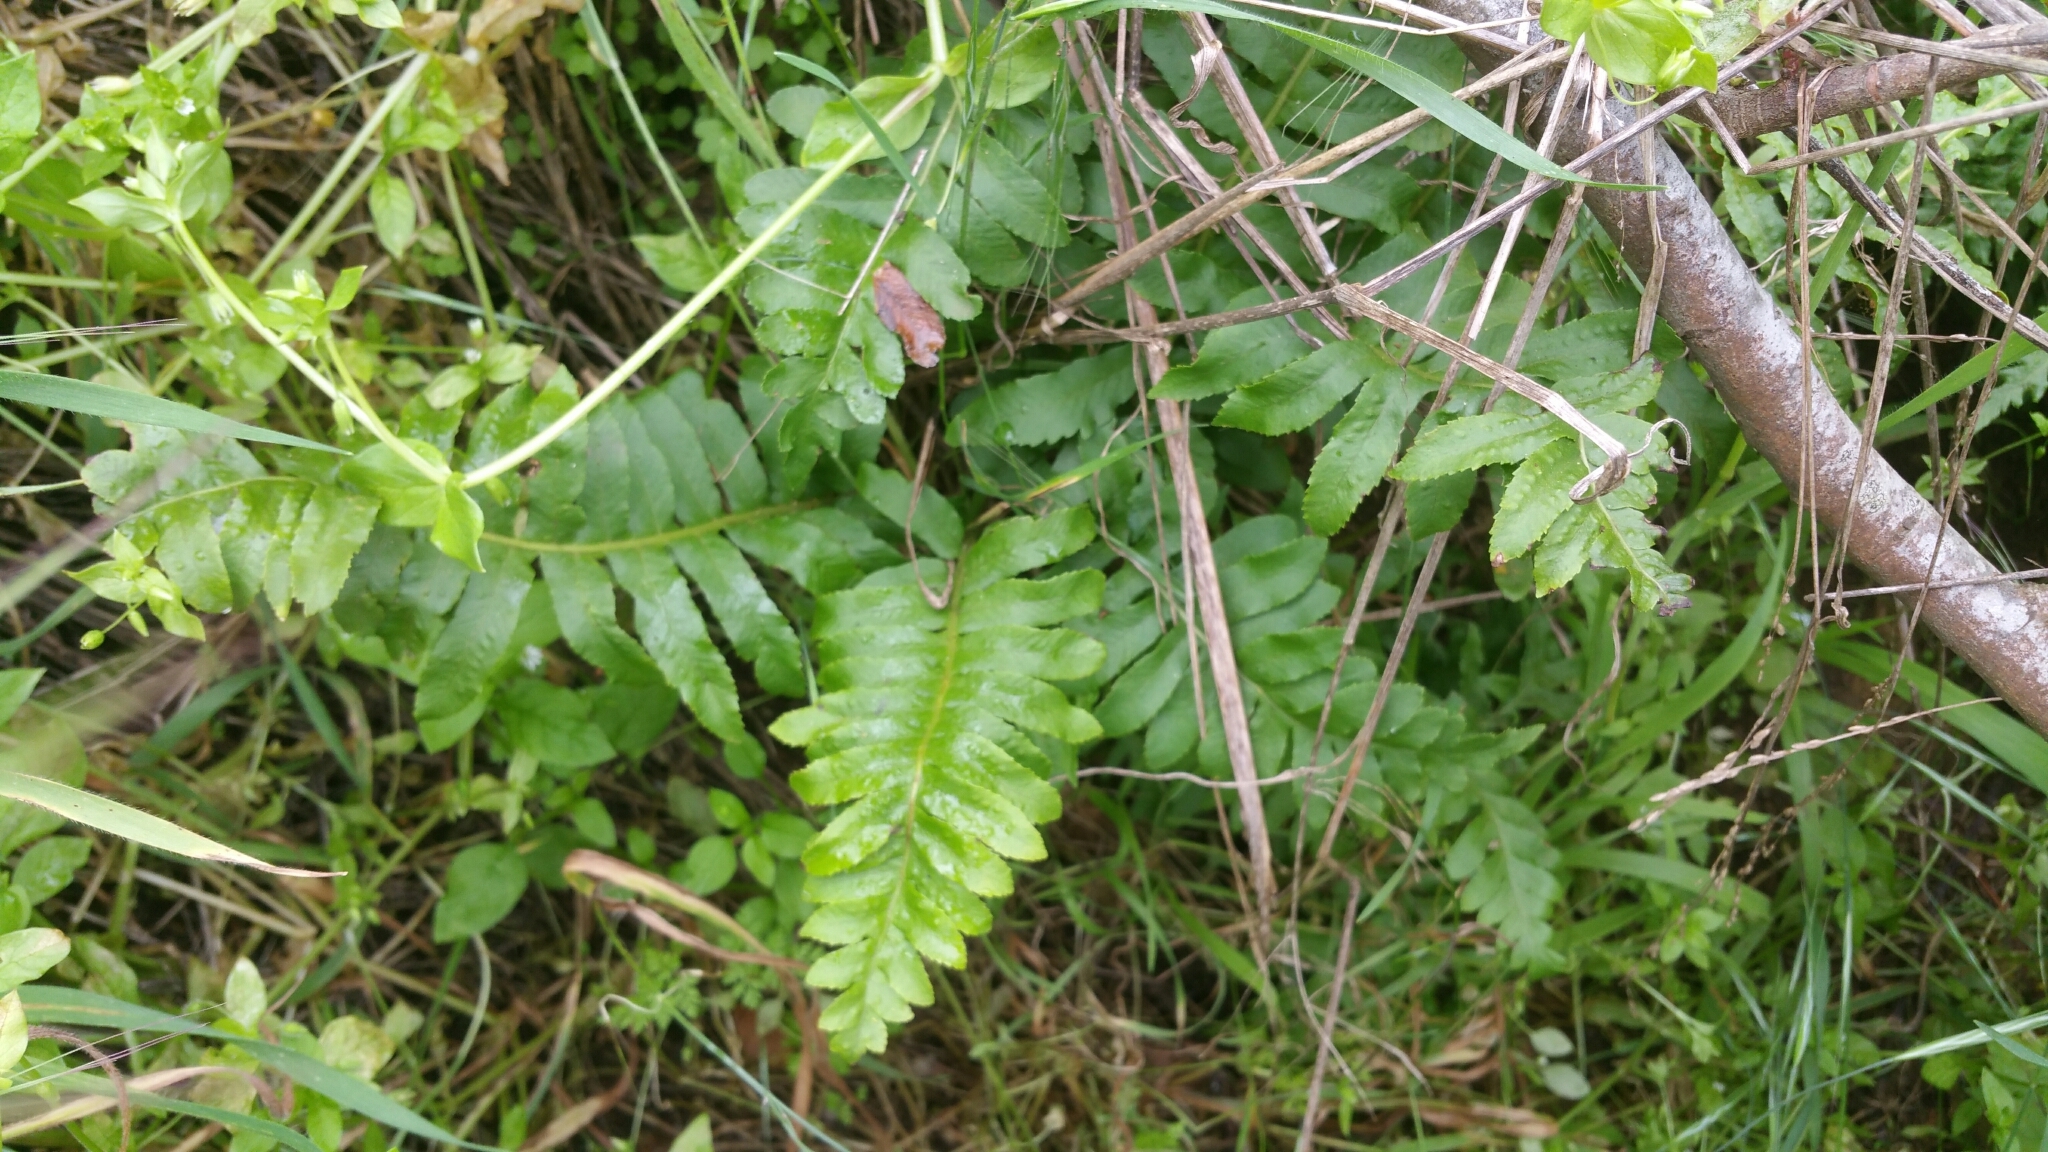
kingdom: Plantae
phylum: Tracheophyta
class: Polypodiopsida
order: Polypodiales
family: Polypodiaceae
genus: Polypodium
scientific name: Polypodium californicum
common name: California polypody
